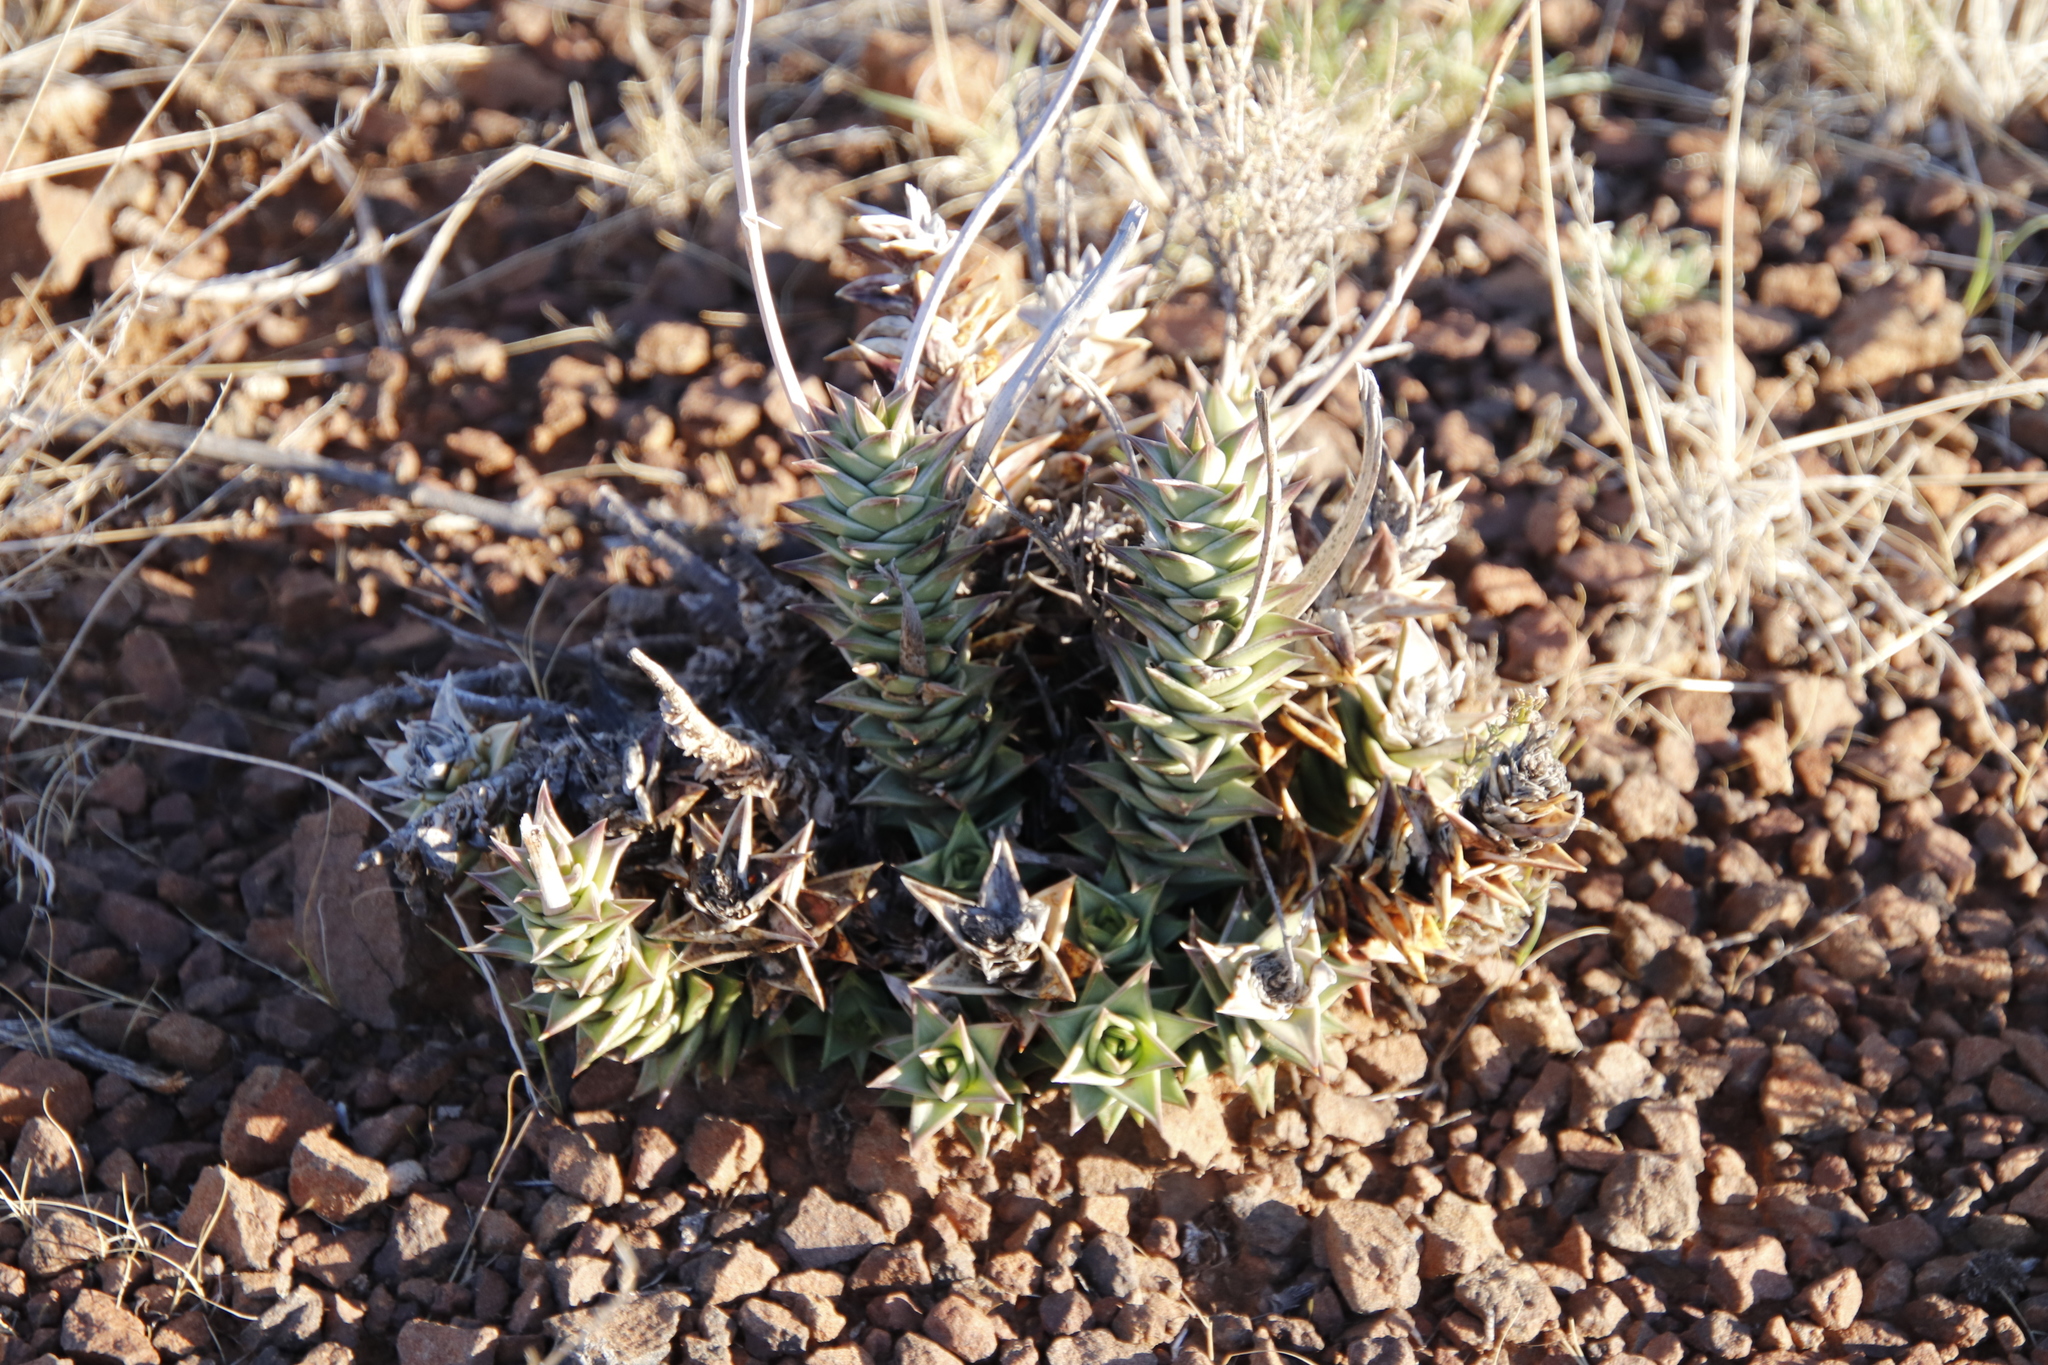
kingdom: Plantae
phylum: Tracheophyta
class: Liliopsida
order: Asparagales
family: Asphodelaceae
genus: Astroloba
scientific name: Astroloba robusta
